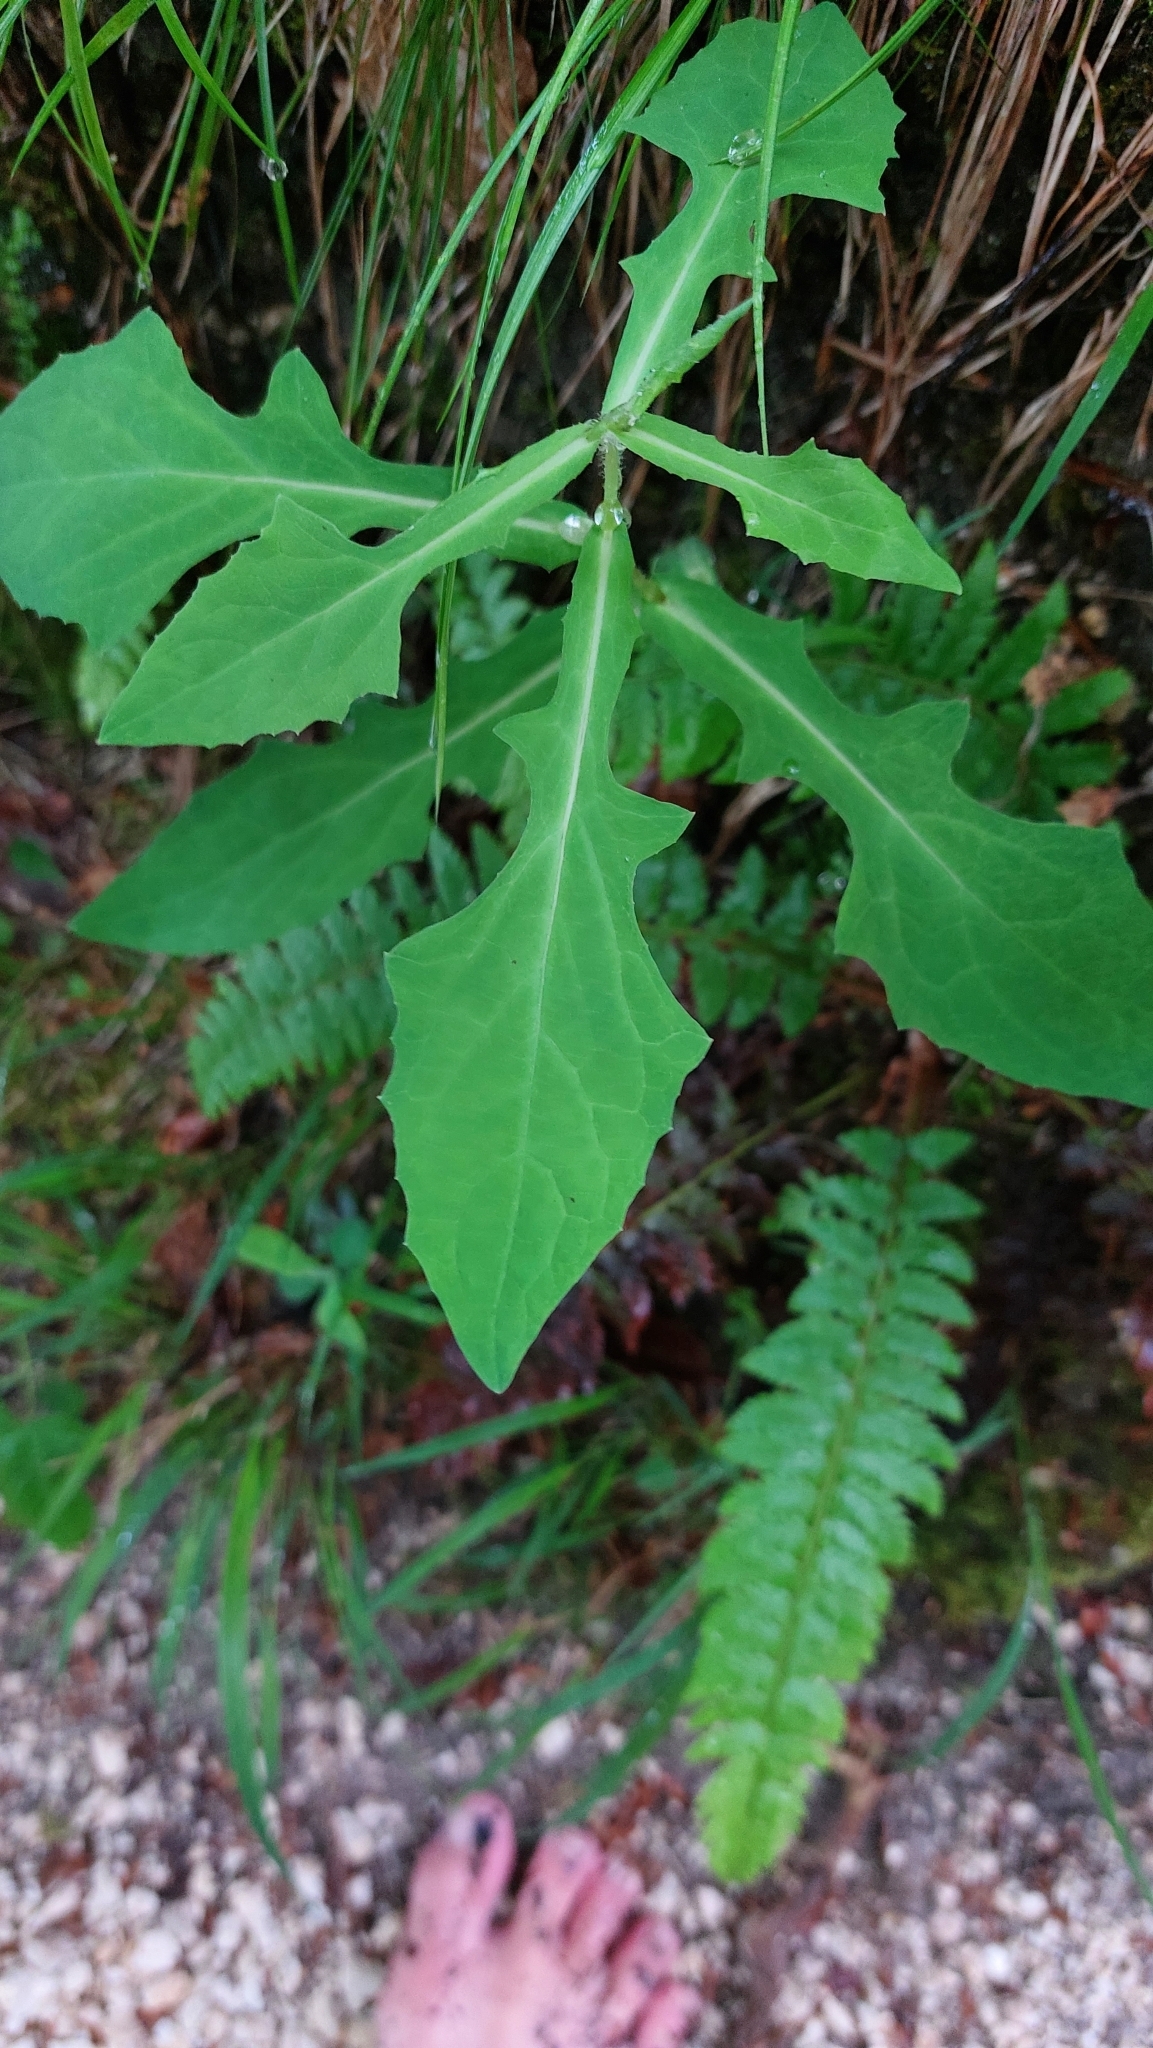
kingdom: Plantae
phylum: Tracheophyta
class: Magnoliopsida
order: Asterales
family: Asteraceae
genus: Prenanthes
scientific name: Prenanthes purpurea
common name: Purple lettuce
